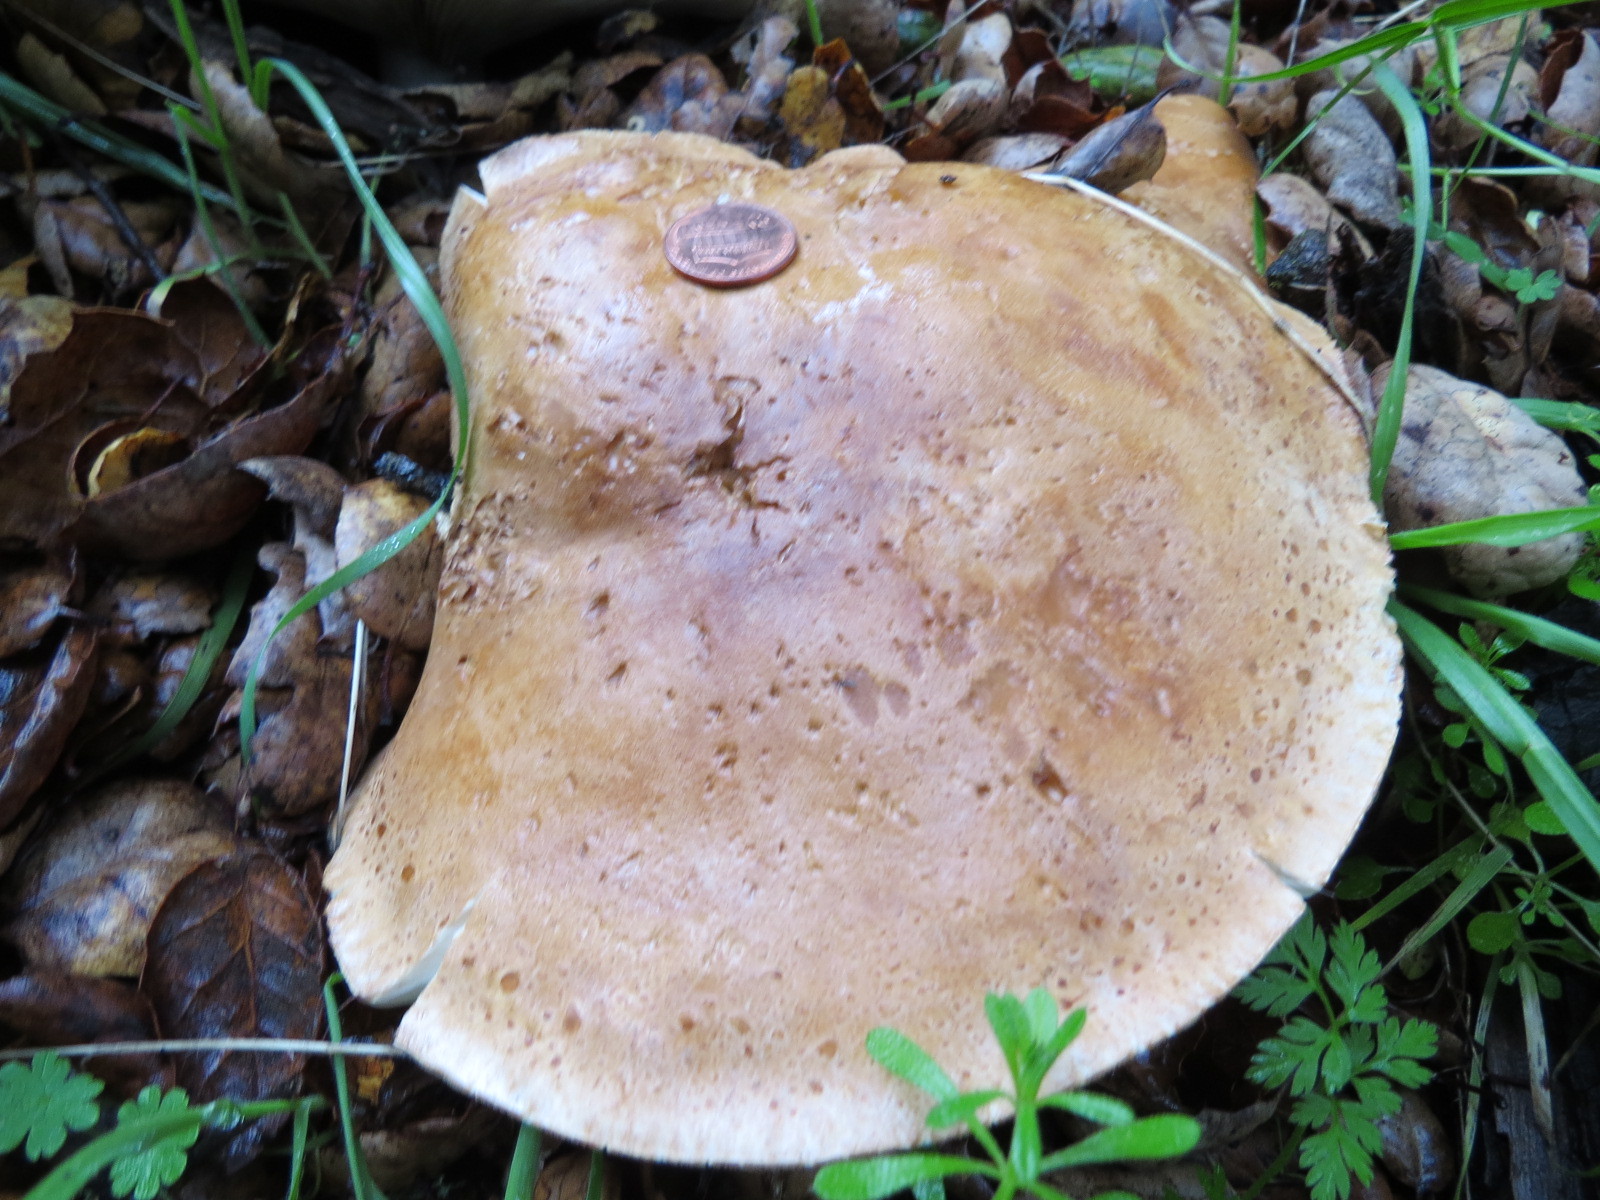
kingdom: Fungi
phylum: Basidiomycota
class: Agaricomycetes
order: Agaricales
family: Tricholomataceae
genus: Leucopaxillus
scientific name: Leucopaxillus gentianeus
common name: Bitter funnel
